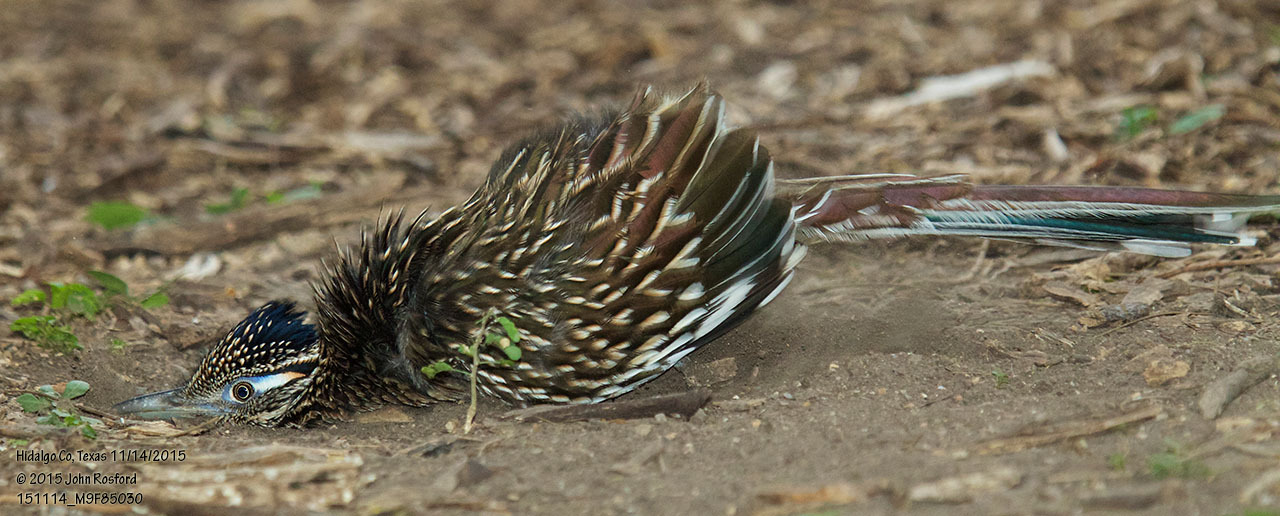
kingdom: Animalia
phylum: Chordata
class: Aves
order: Cuculiformes
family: Cuculidae
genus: Geococcyx
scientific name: Geococcyx californianus
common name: Greater roadrunner
